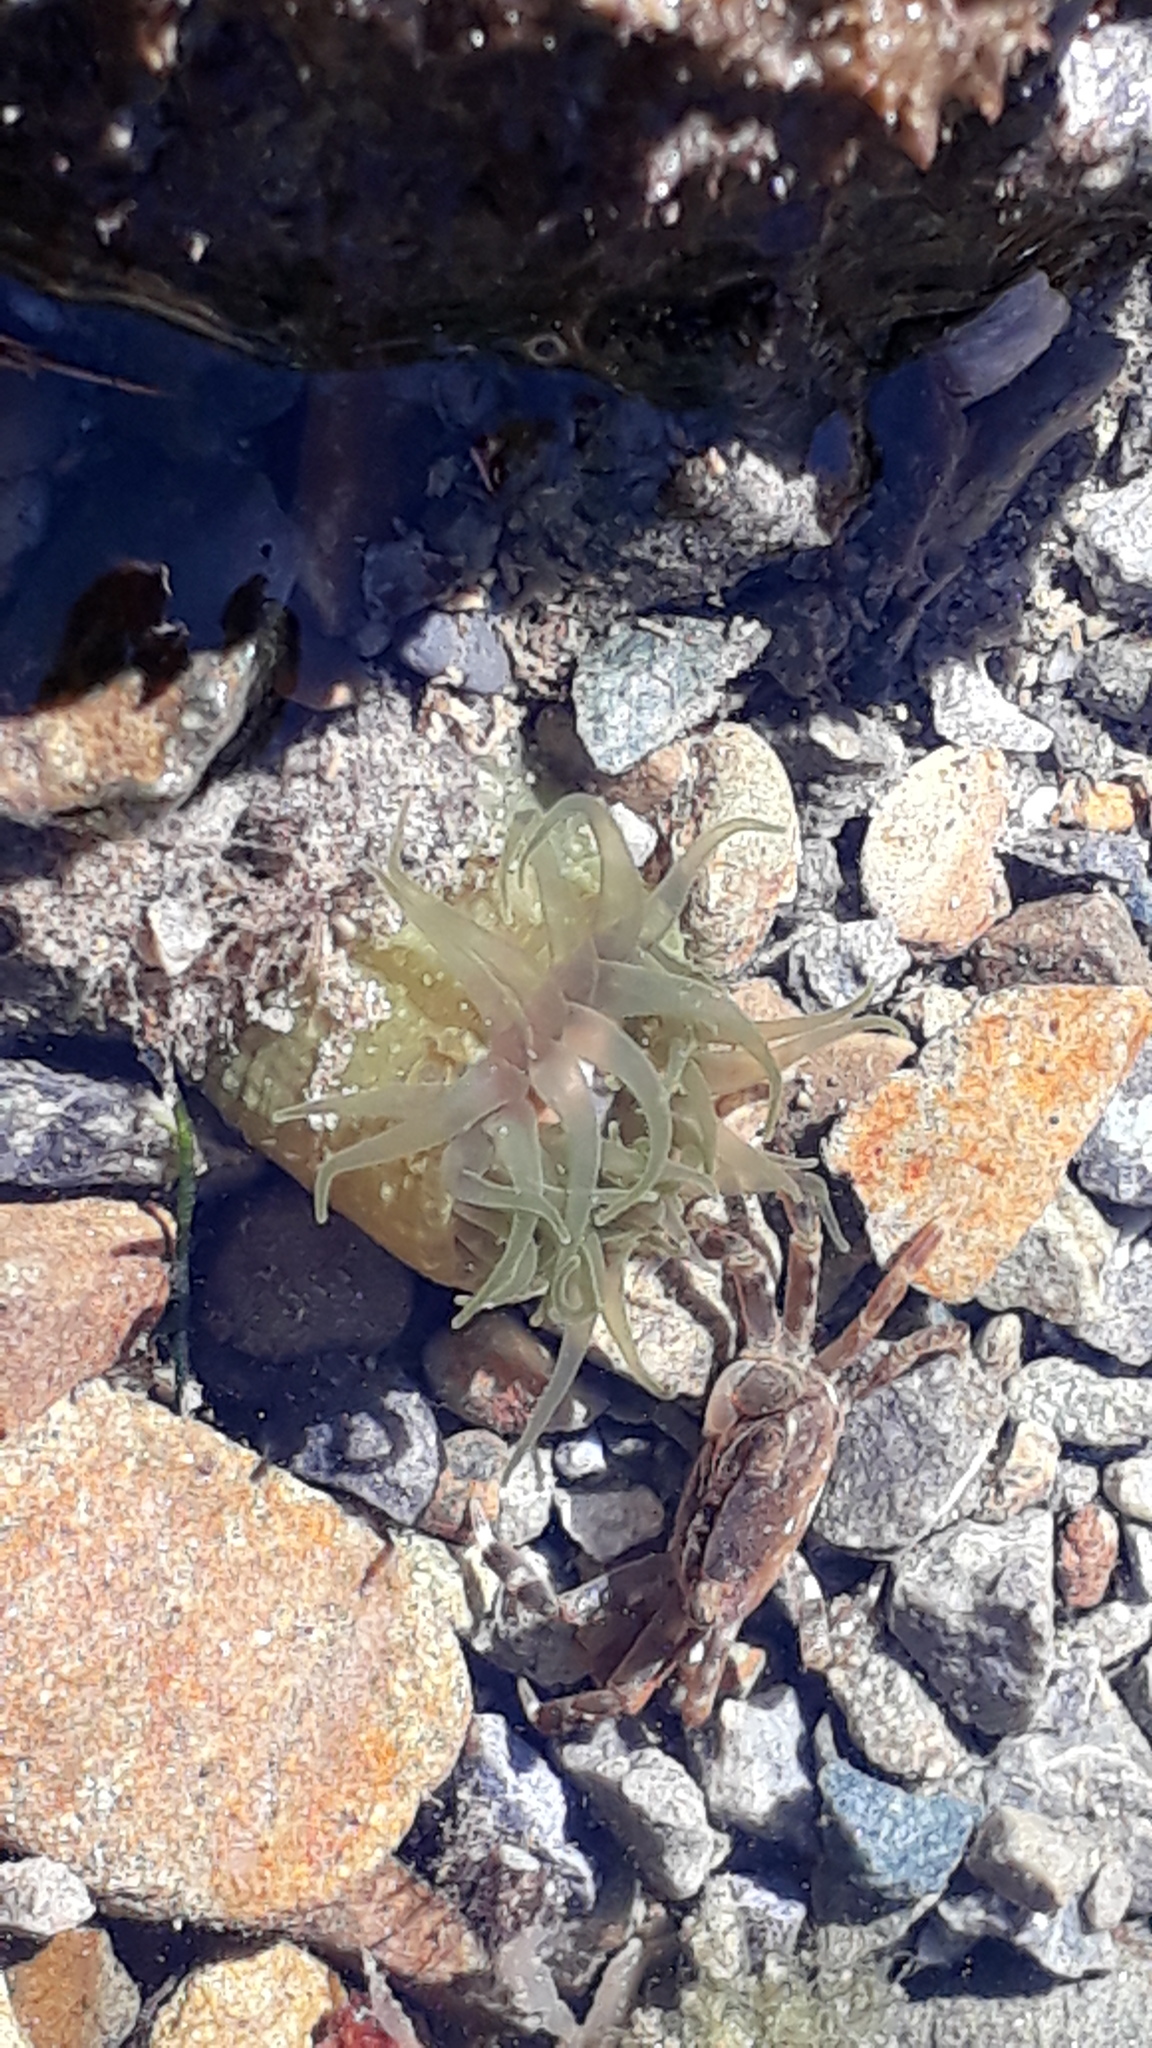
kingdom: Animalia
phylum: Cnidaria
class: Anthozoa
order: Actiniaria
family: Actiniidae
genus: Isactinia
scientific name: Isactinia olivacea
